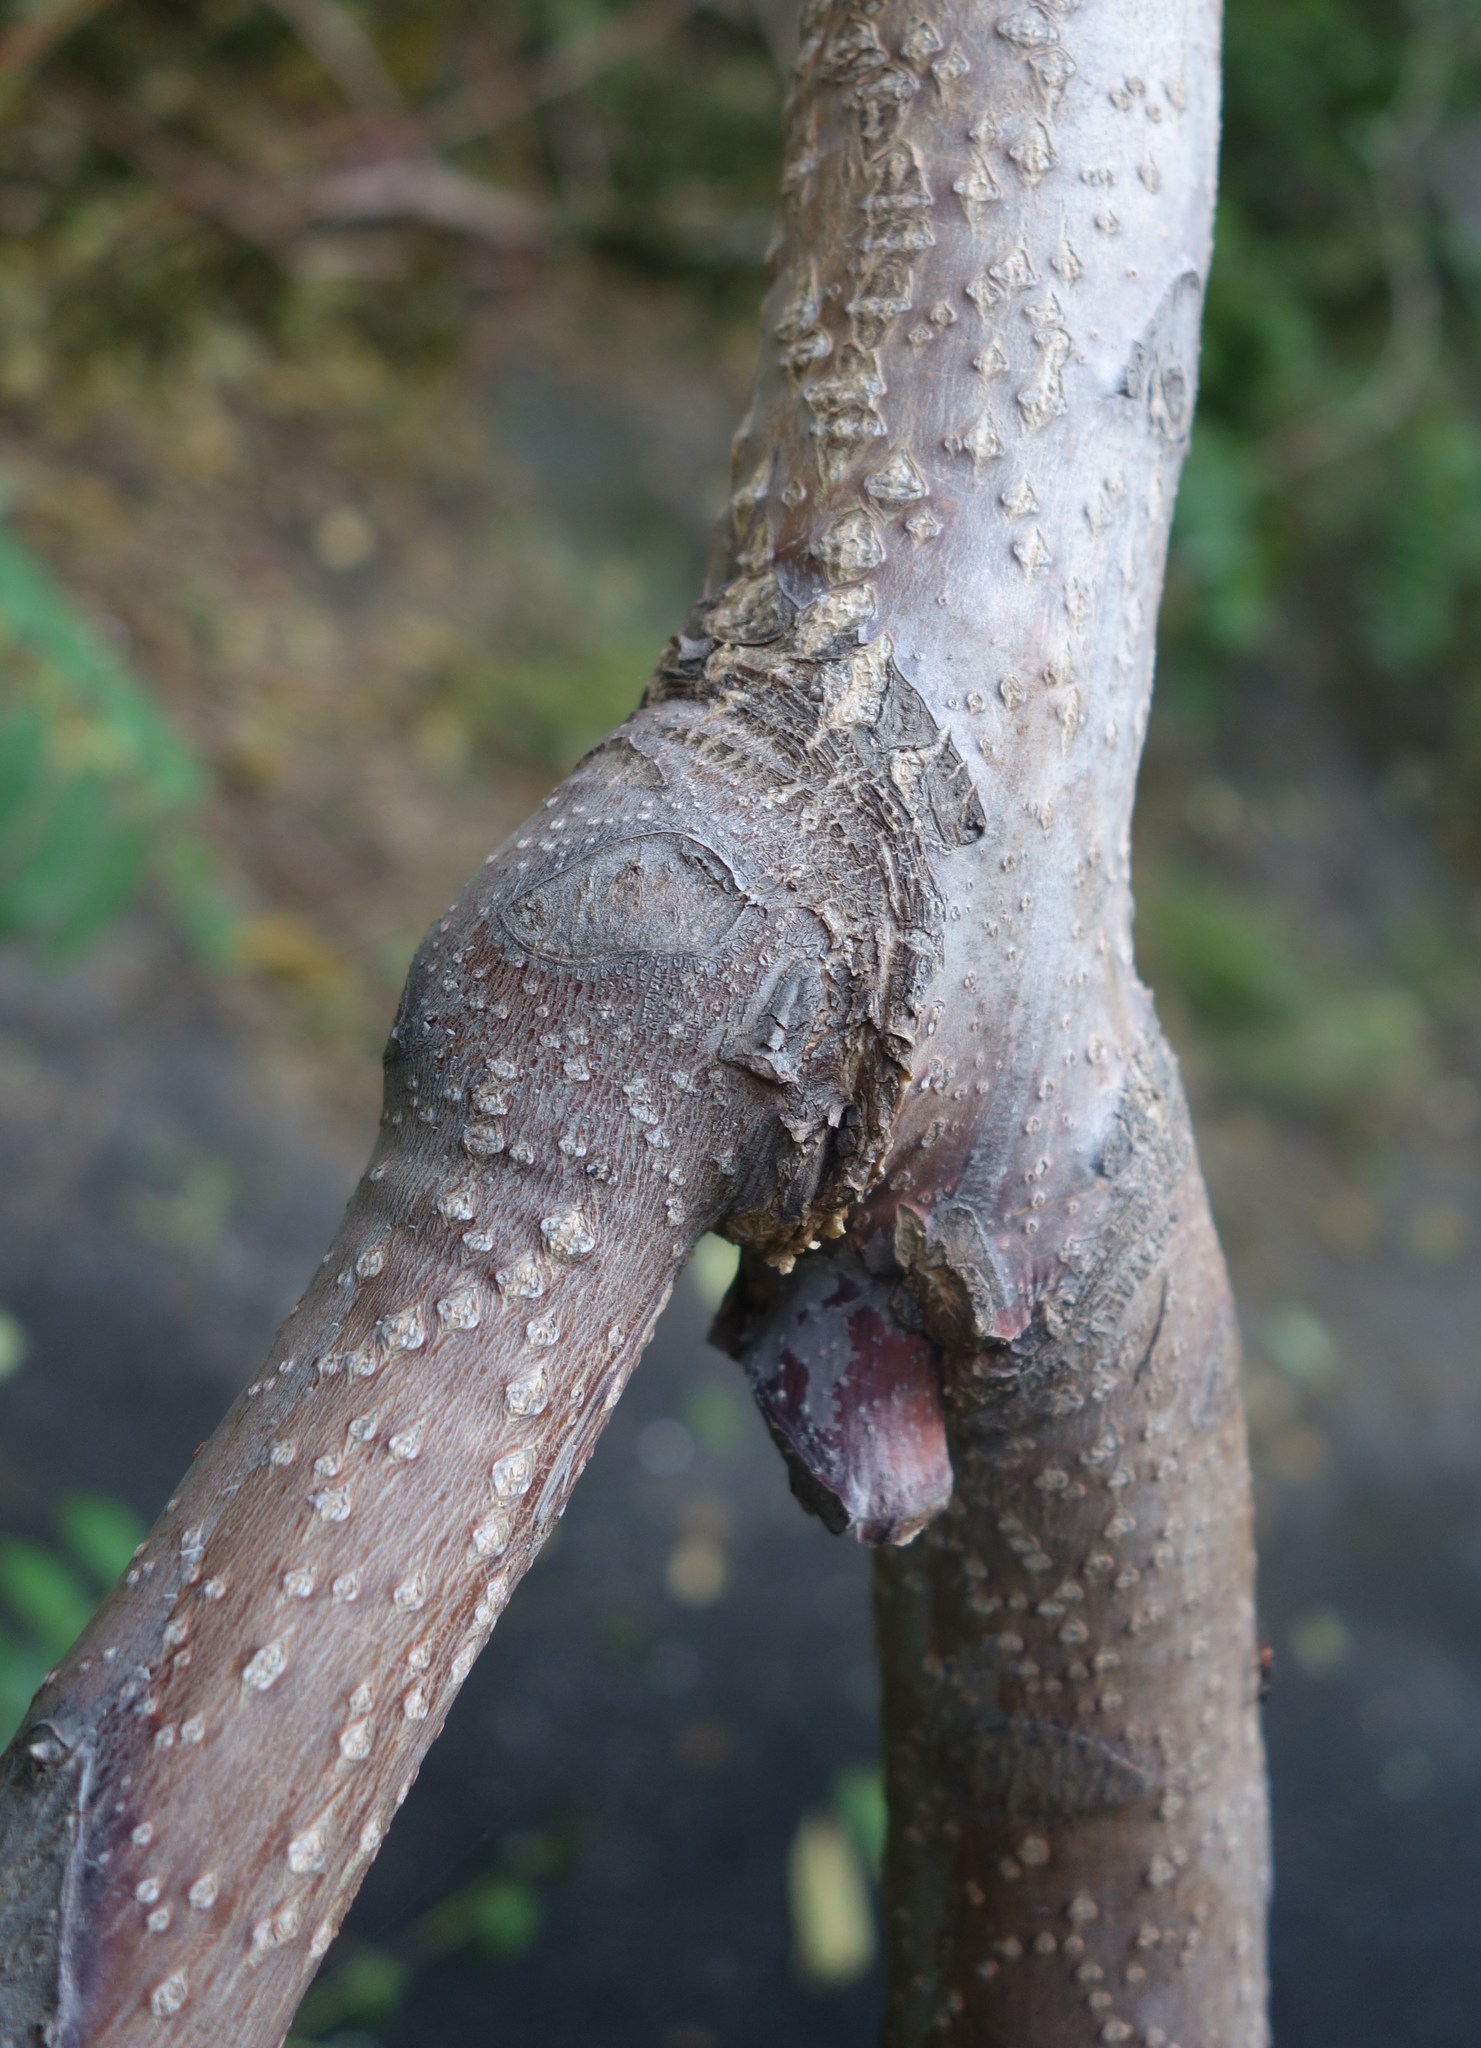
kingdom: Plantae
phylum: Tracheophyta
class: Magnoliopsida
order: Sapindales
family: Simaroubaceae
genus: Ailanthus
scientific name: Ailanthus altissima
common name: Tree-of-heaven
